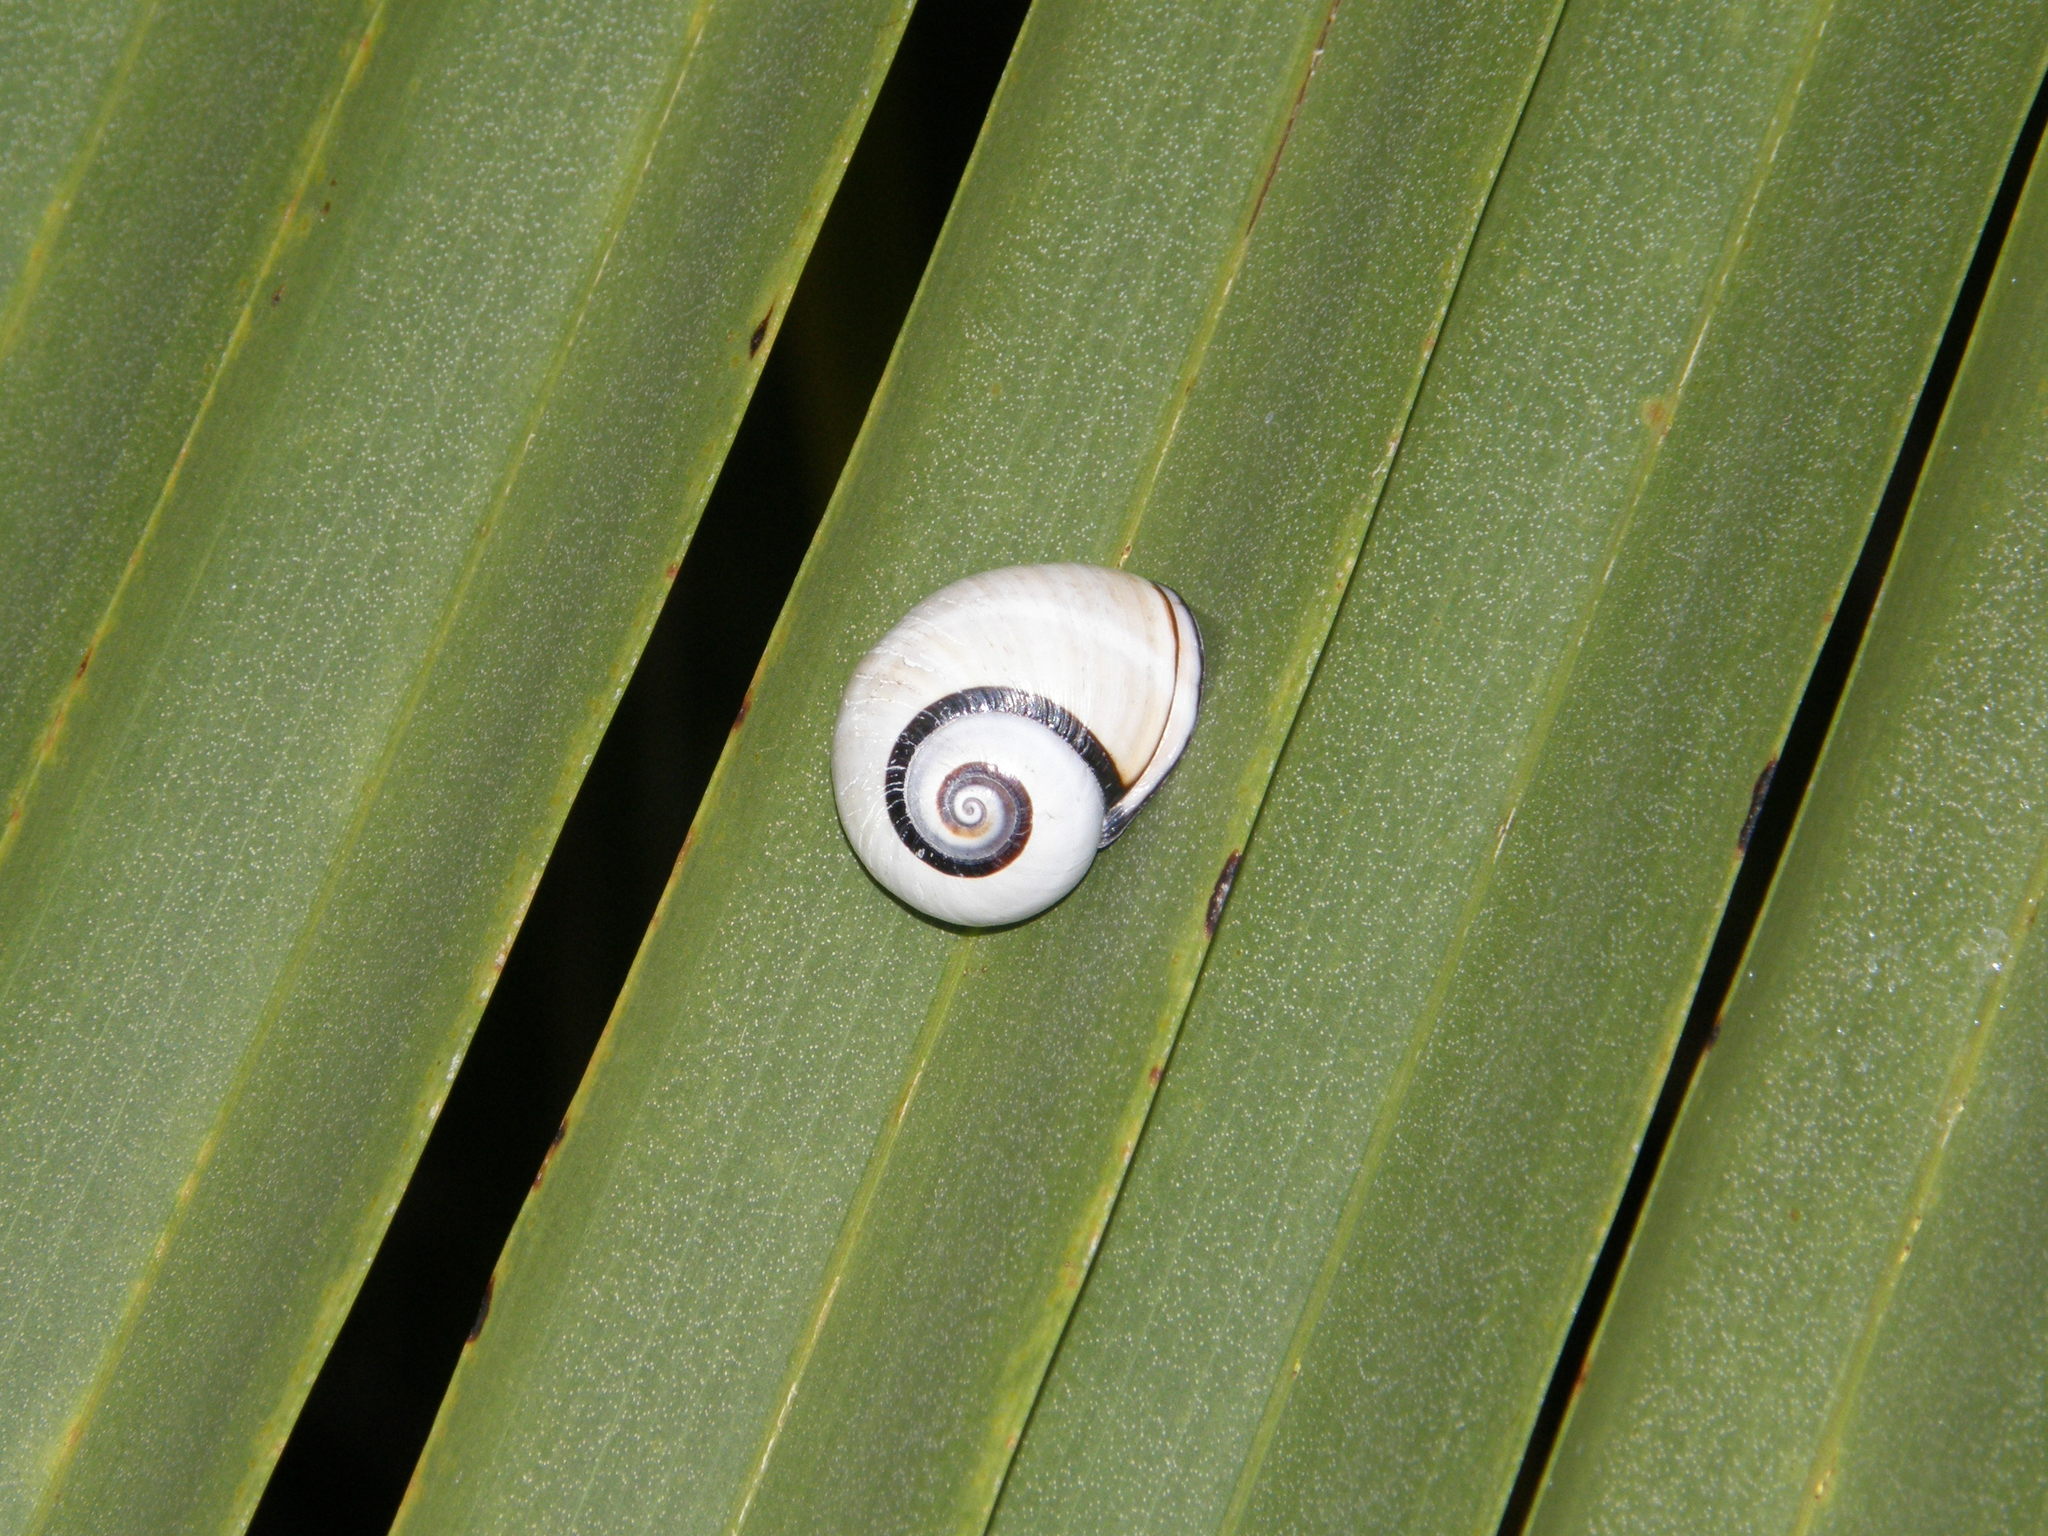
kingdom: Animalia
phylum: Mollusca
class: Gastropoda
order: Stylommatophora
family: Cepolidae
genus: Polymita
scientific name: Polymita picta
